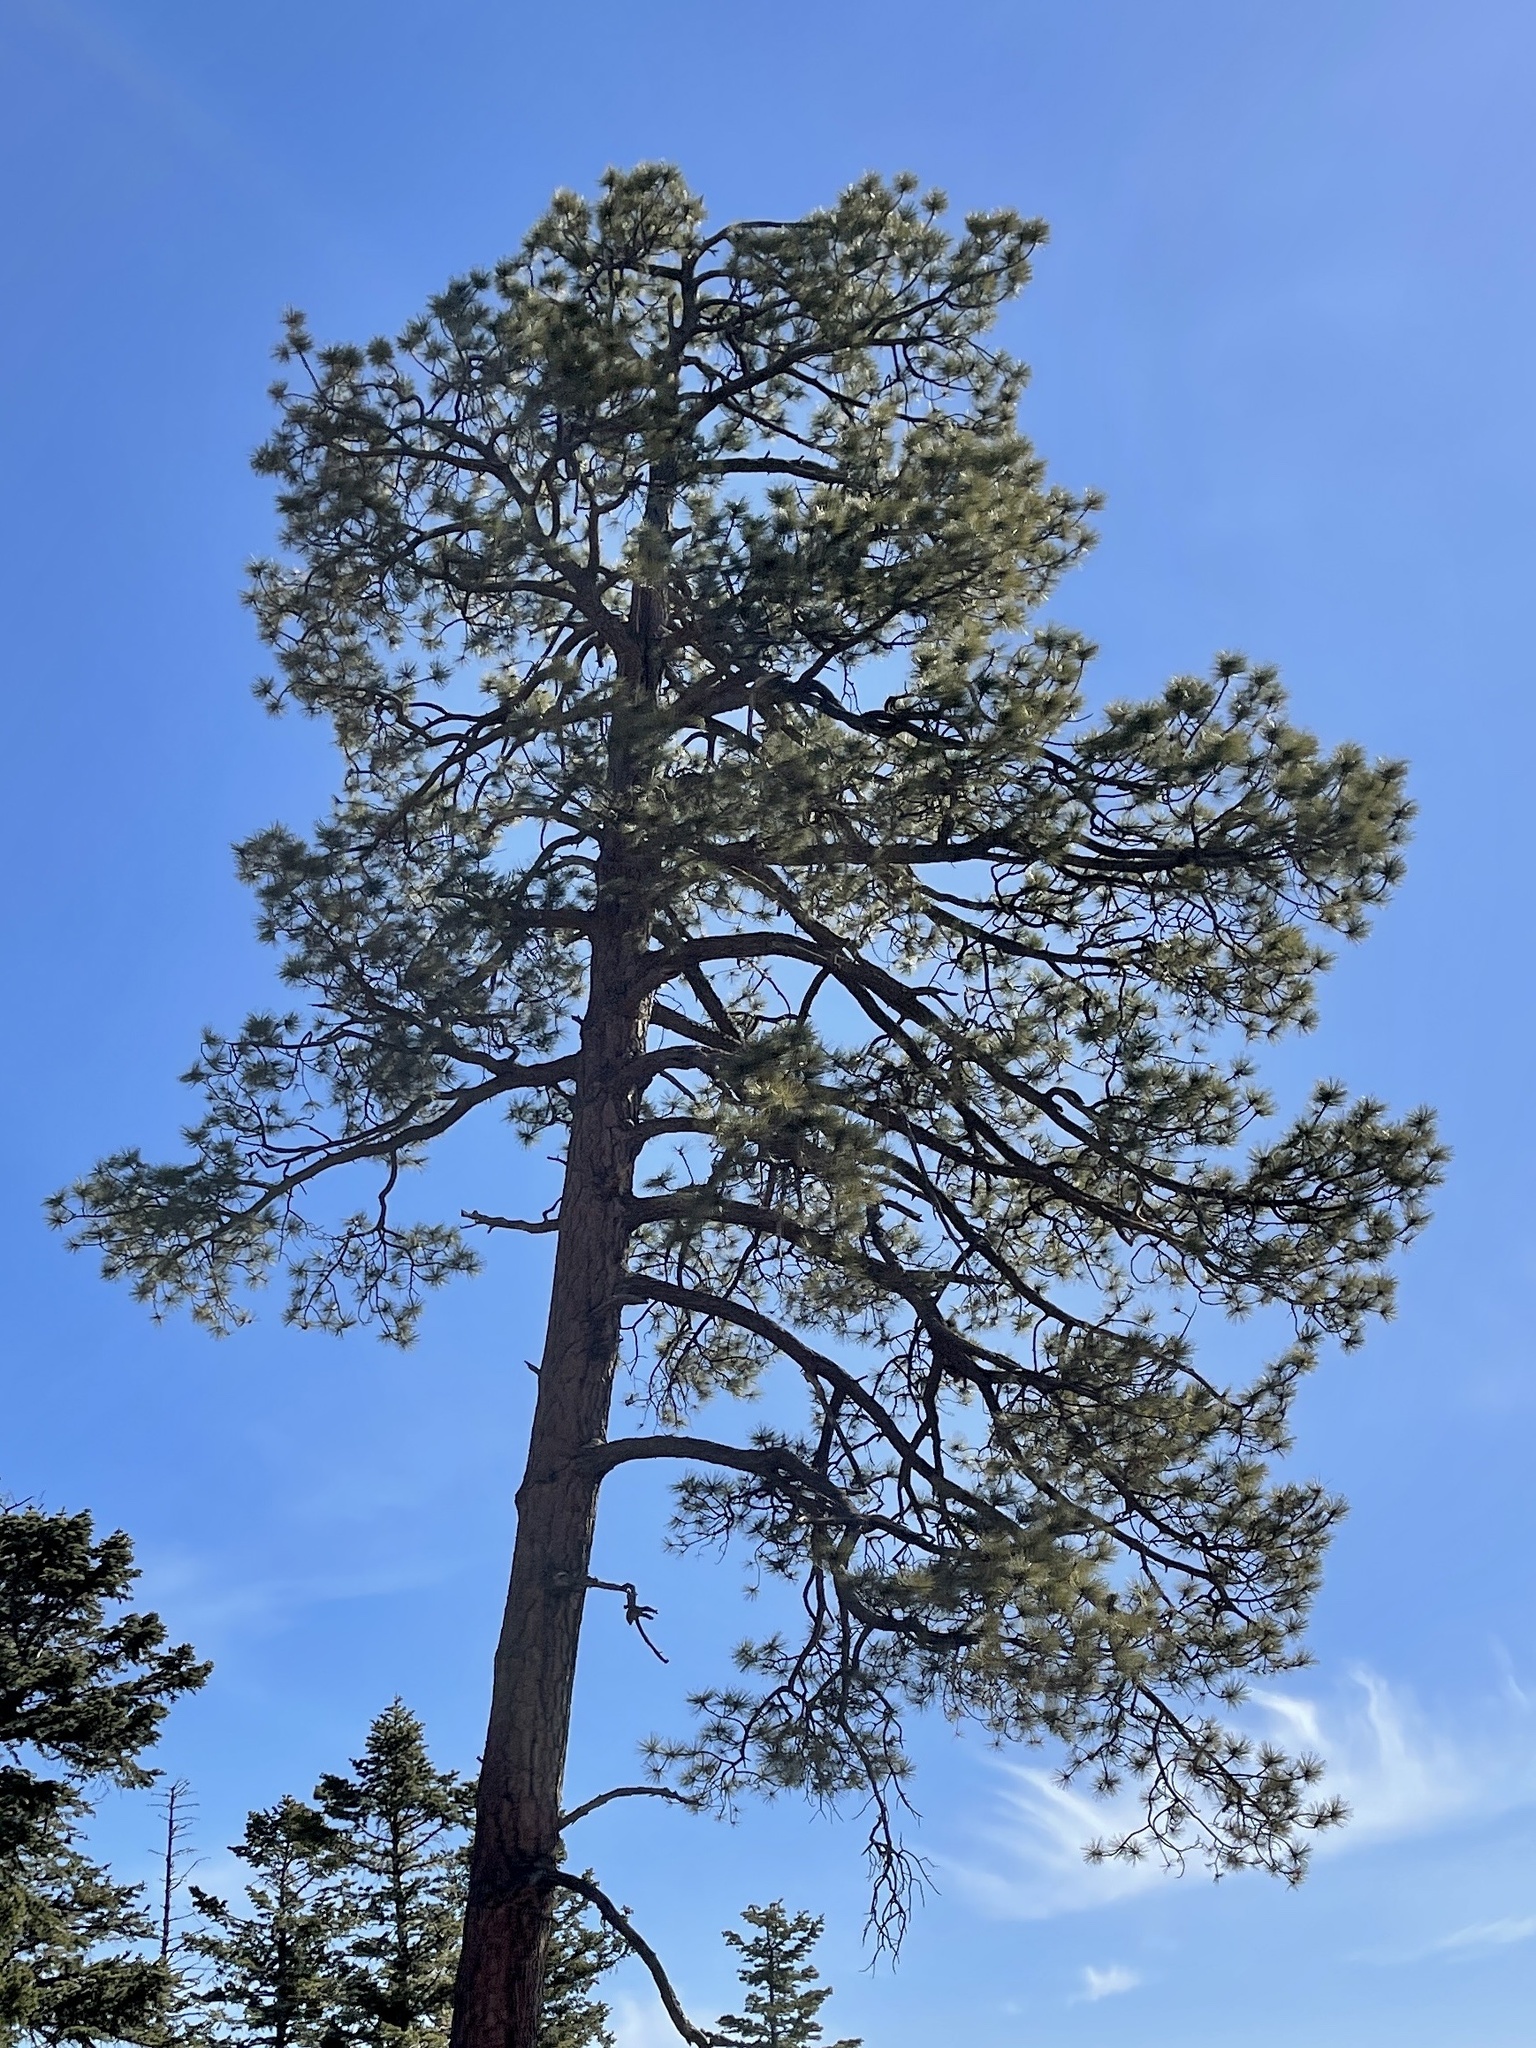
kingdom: Plantae
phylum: Tracheophyta
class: Pinopsida
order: Pinales
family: Pinaceae
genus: Pinus
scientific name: Pinus ponderosa
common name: Western yellow-pine
